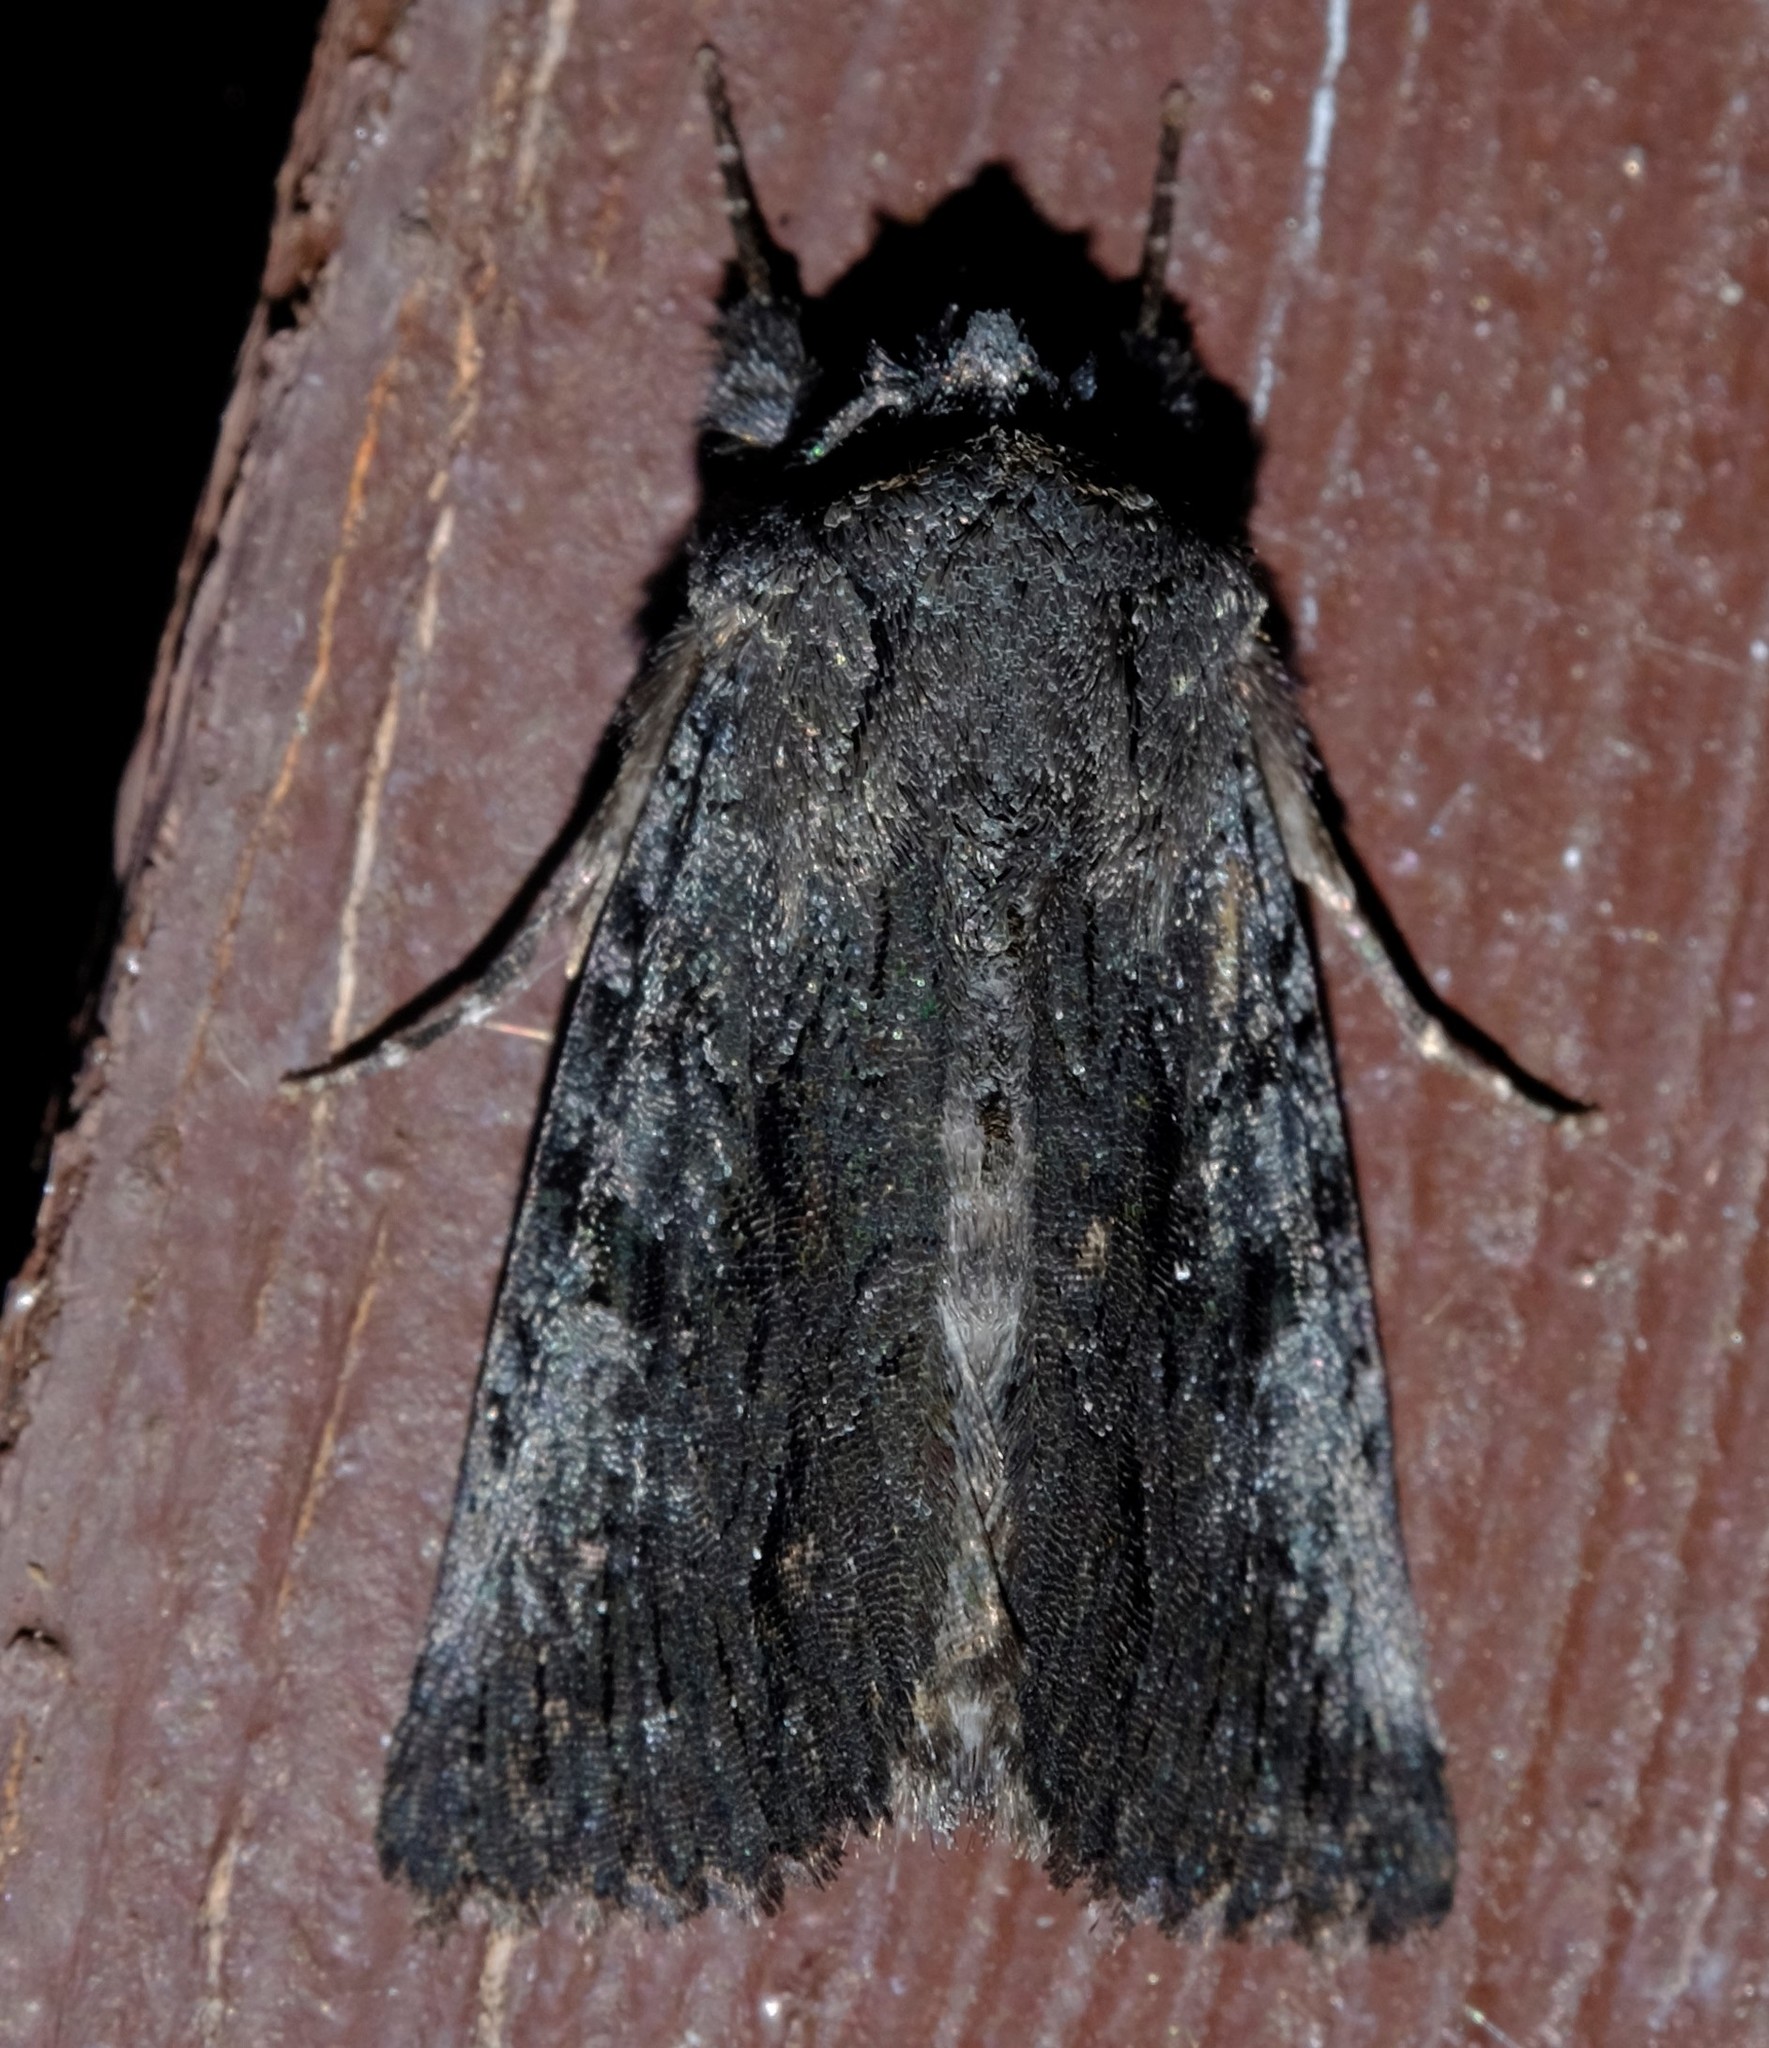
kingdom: Animalia
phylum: Arthropoda
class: Insecta
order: Lepidoptera
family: Noctuidae
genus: Neumichtis
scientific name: Neumichtis nigerrima
